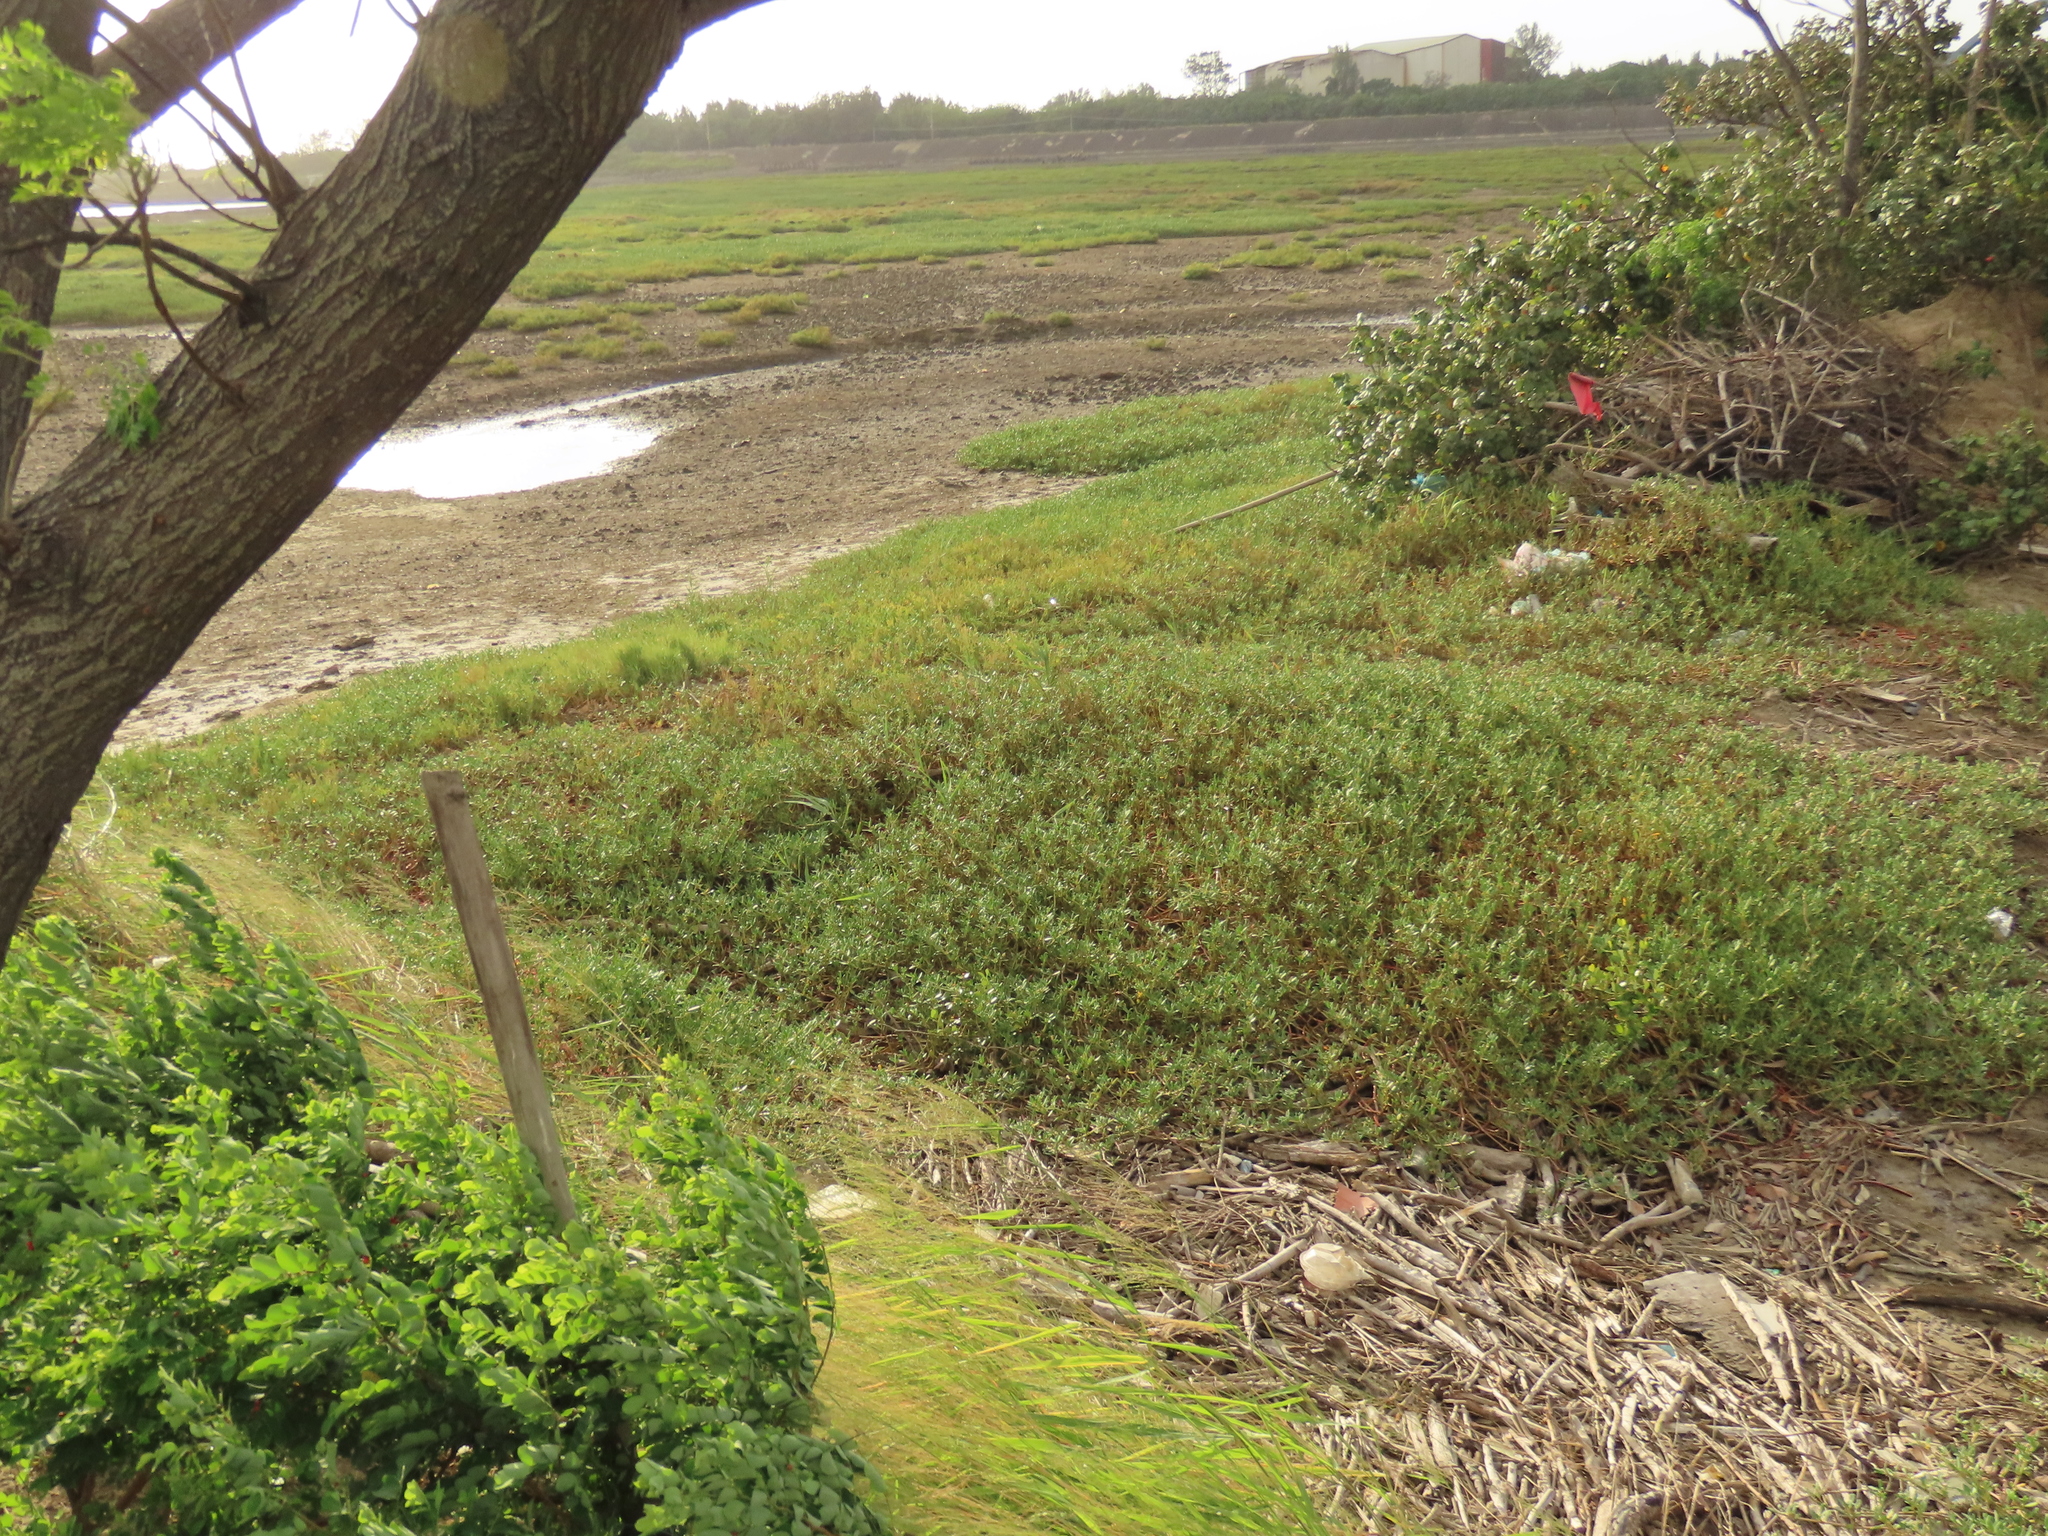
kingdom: Plantae
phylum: Tracheophyta
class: Magnoliopsida
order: Caryophyllales
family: Aizoaceae
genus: Sesuvium
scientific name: Sesuvium portulacastrum
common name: Sea-purslane
